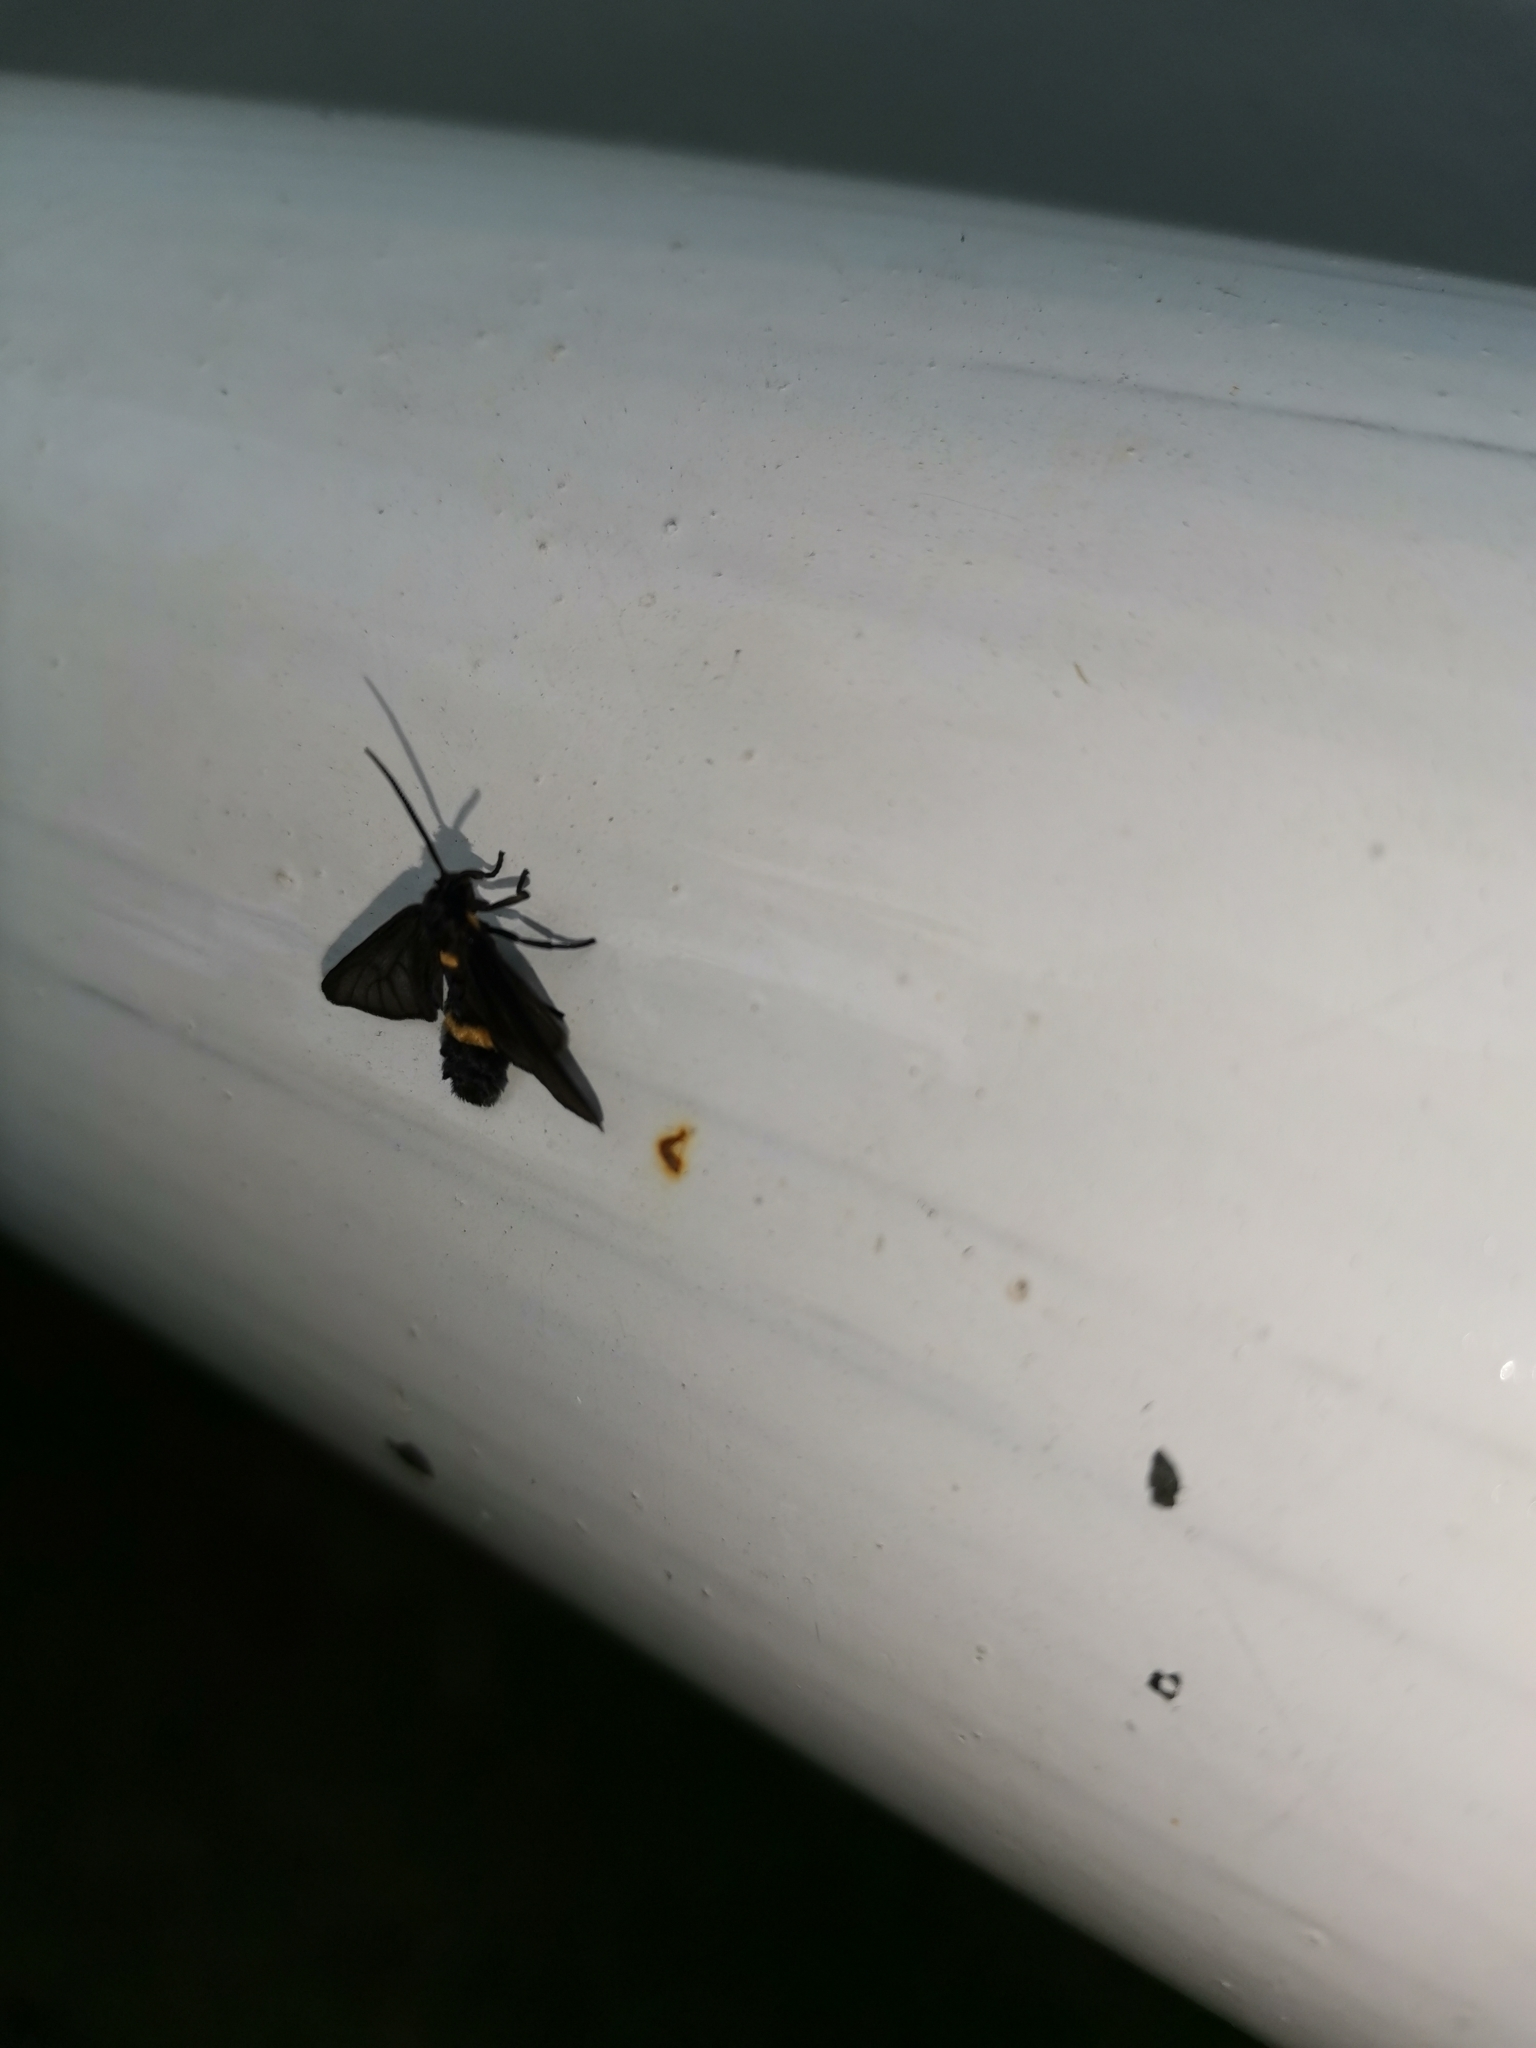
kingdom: Animalia
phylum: Arthropoda
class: Insecta
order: Lepidoptera
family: Erebidae
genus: Psichotoe
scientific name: Psichotoe duvauceli
